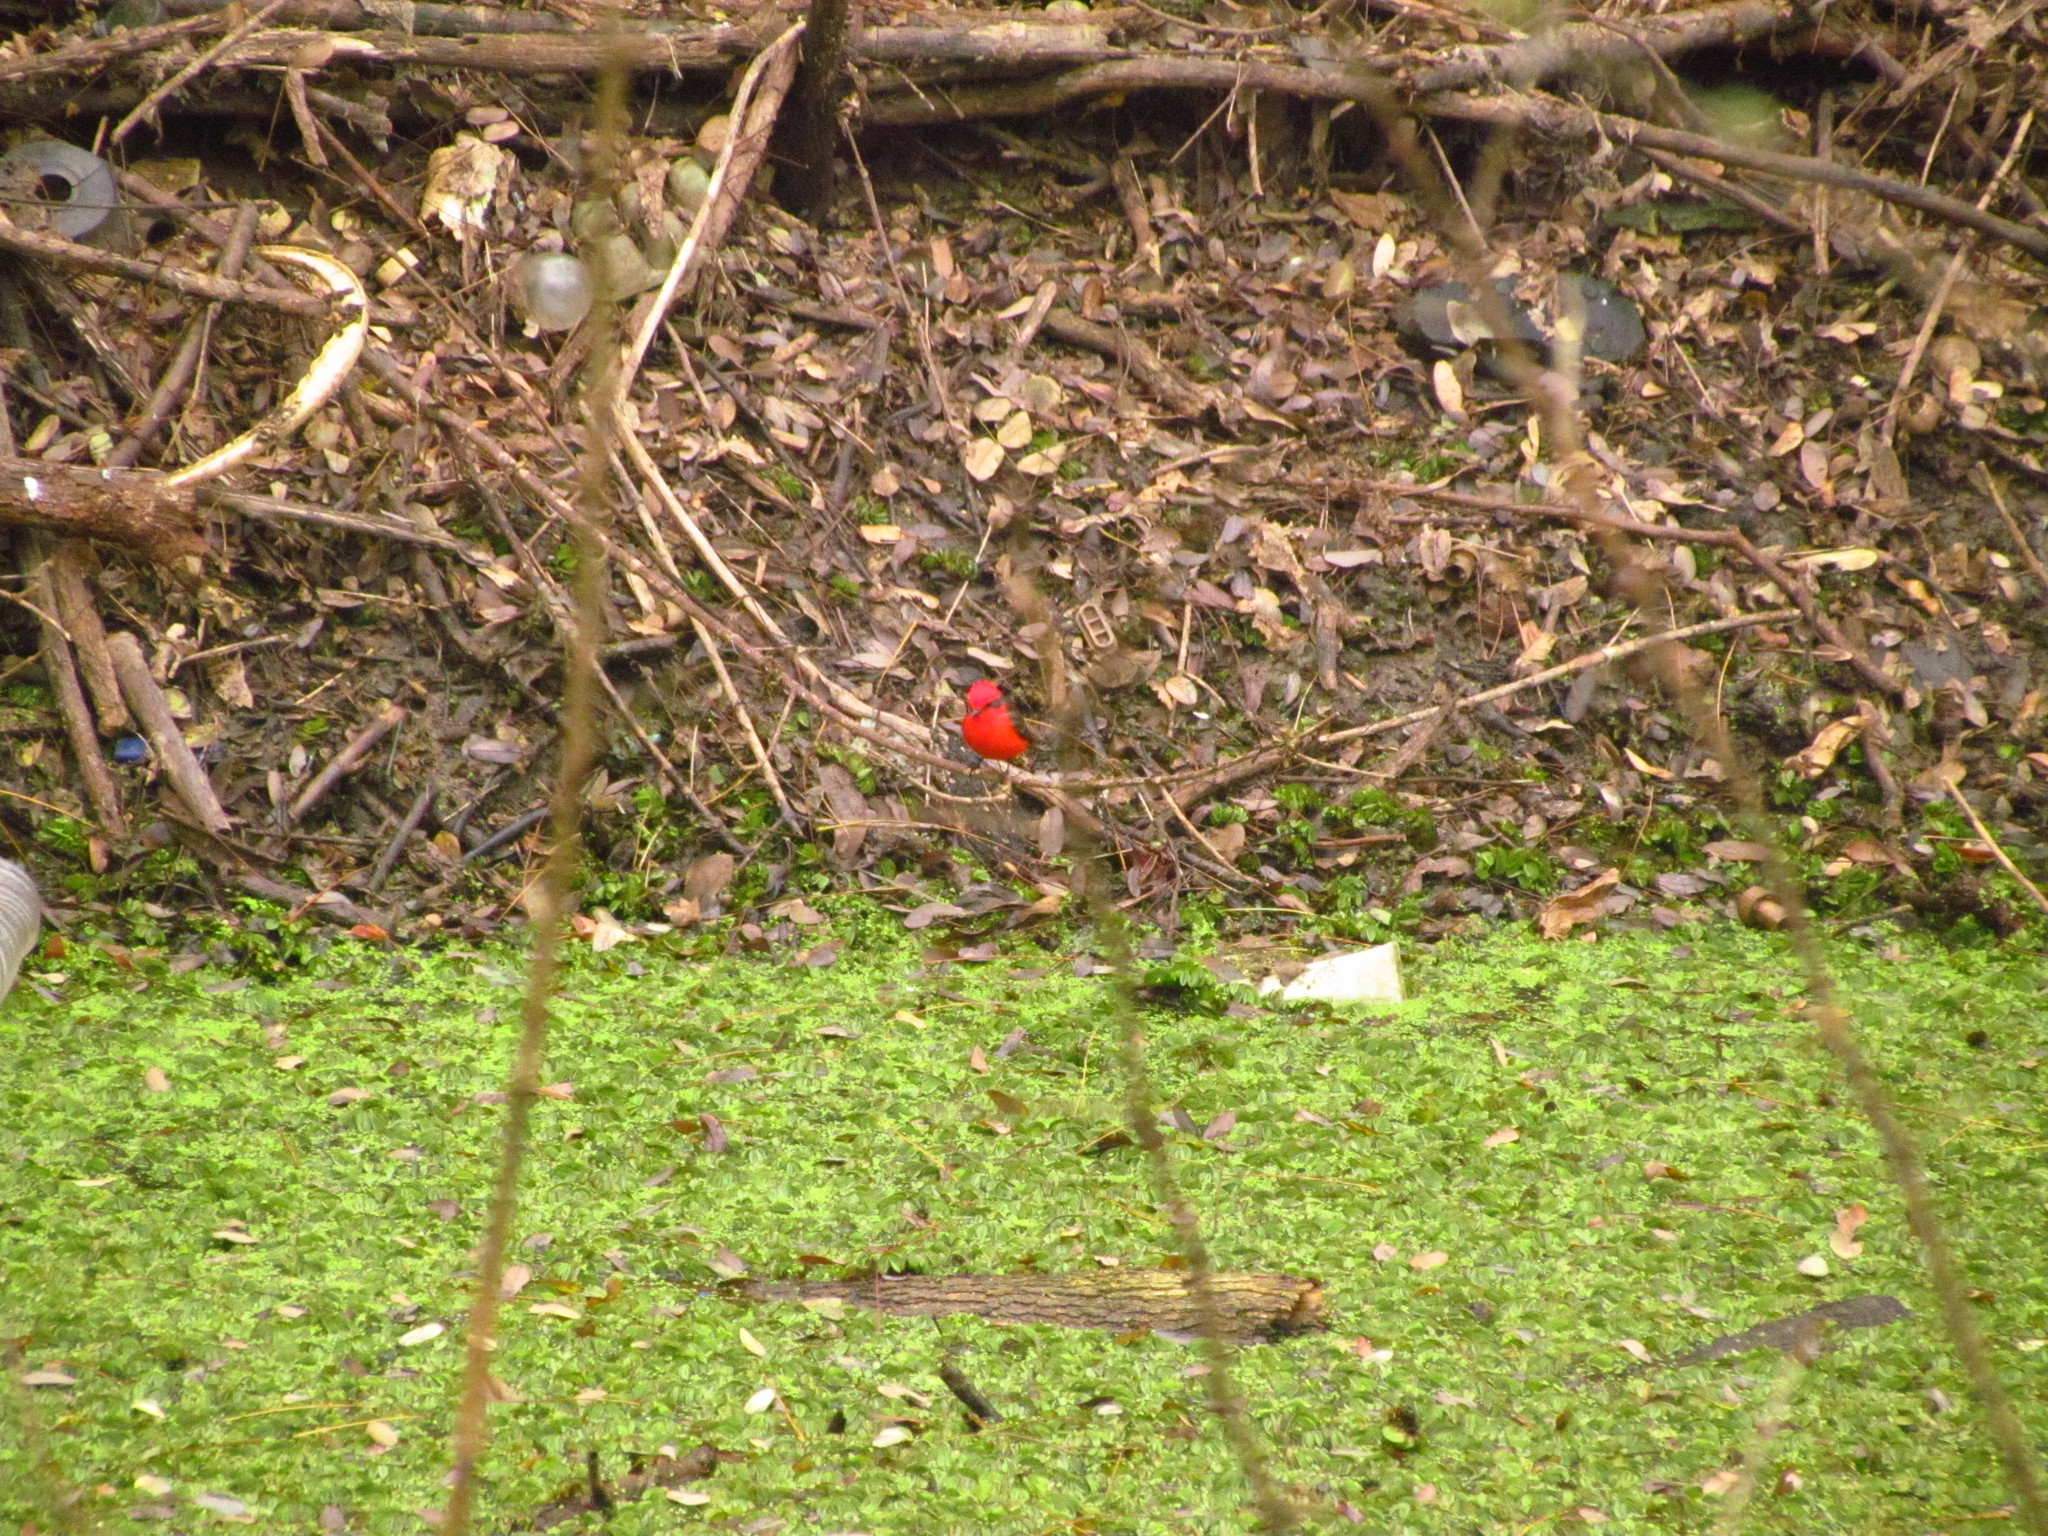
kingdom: Animalia
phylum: Chordata
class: Aves
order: Passeriformes
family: Tyrannidae
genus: Pyrocephalus
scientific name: Pyrocephalus rubinus
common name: Vermilion flycatcher
